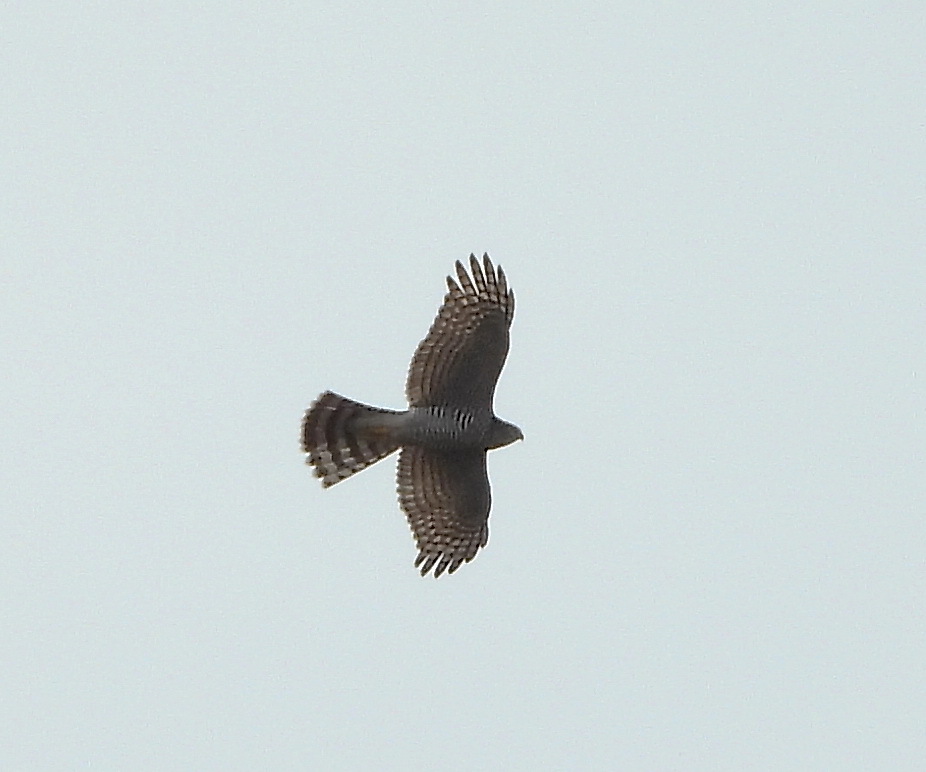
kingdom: Animalia
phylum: Chordata
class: Aves
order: Accipitriformes
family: Accipitridae
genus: Accipiter
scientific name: Accipiter nisus
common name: Eurasian sparrowhawk
